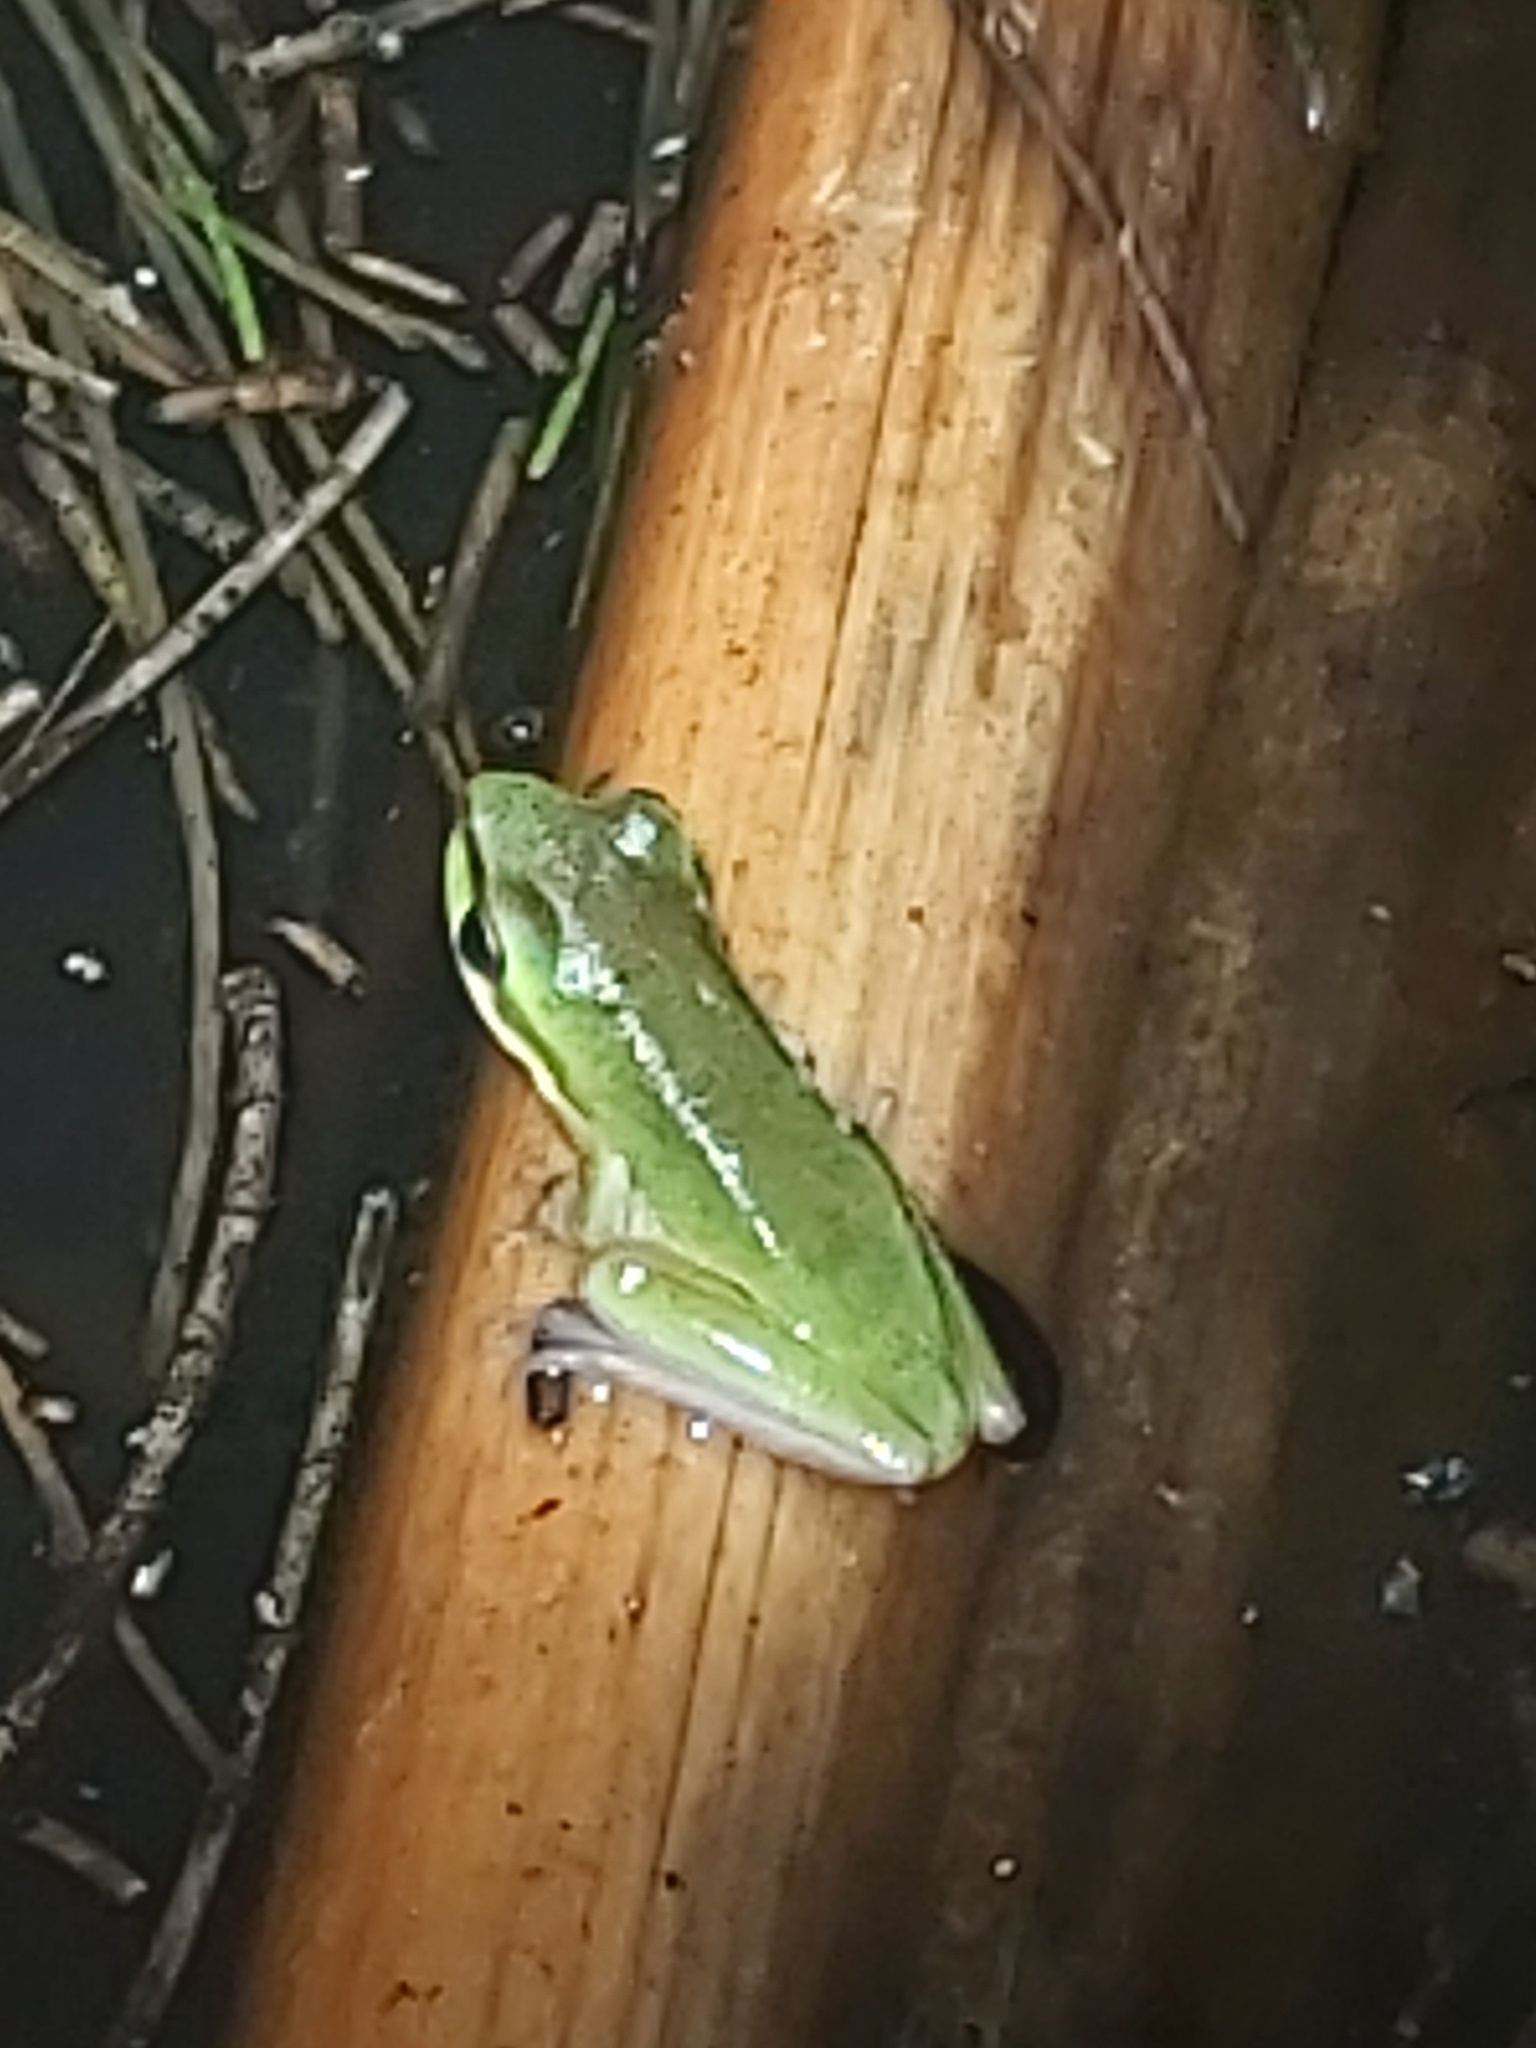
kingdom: Animalia
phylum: Chordata
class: Amphibia
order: Anura
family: Pelodryadidae
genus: Litoria
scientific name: Litoria fallax
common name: Eastern dwarf treefrog
